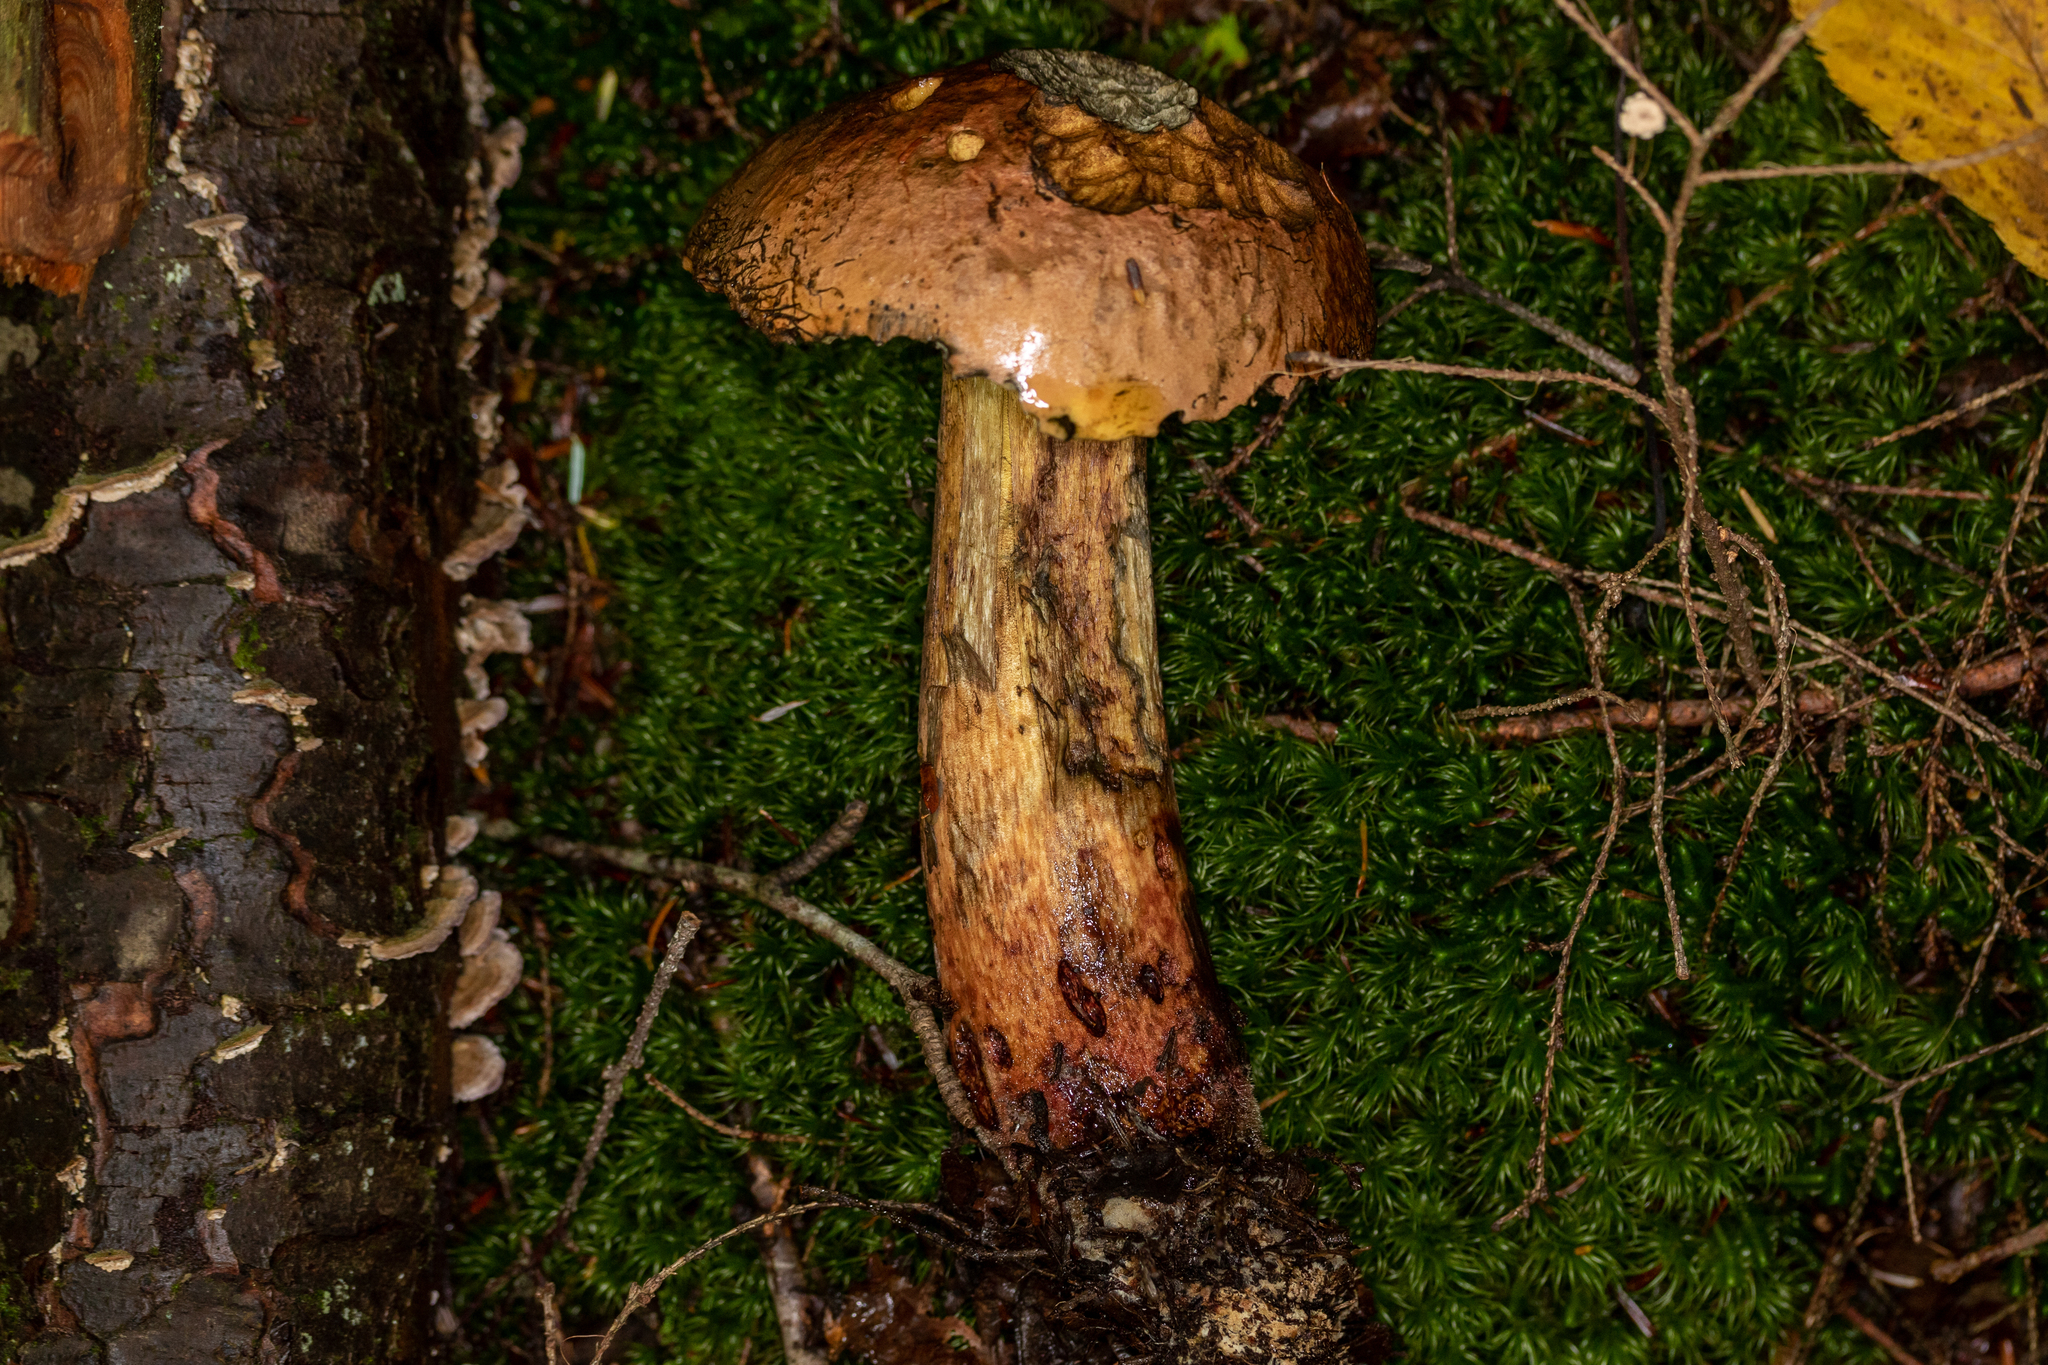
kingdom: Fungi
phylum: Basidiomycota
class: Agaricomycetes
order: Boletales
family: Boletaceae
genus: Boletus
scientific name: Boletus subvelutipes
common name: Red-mouth bolete
